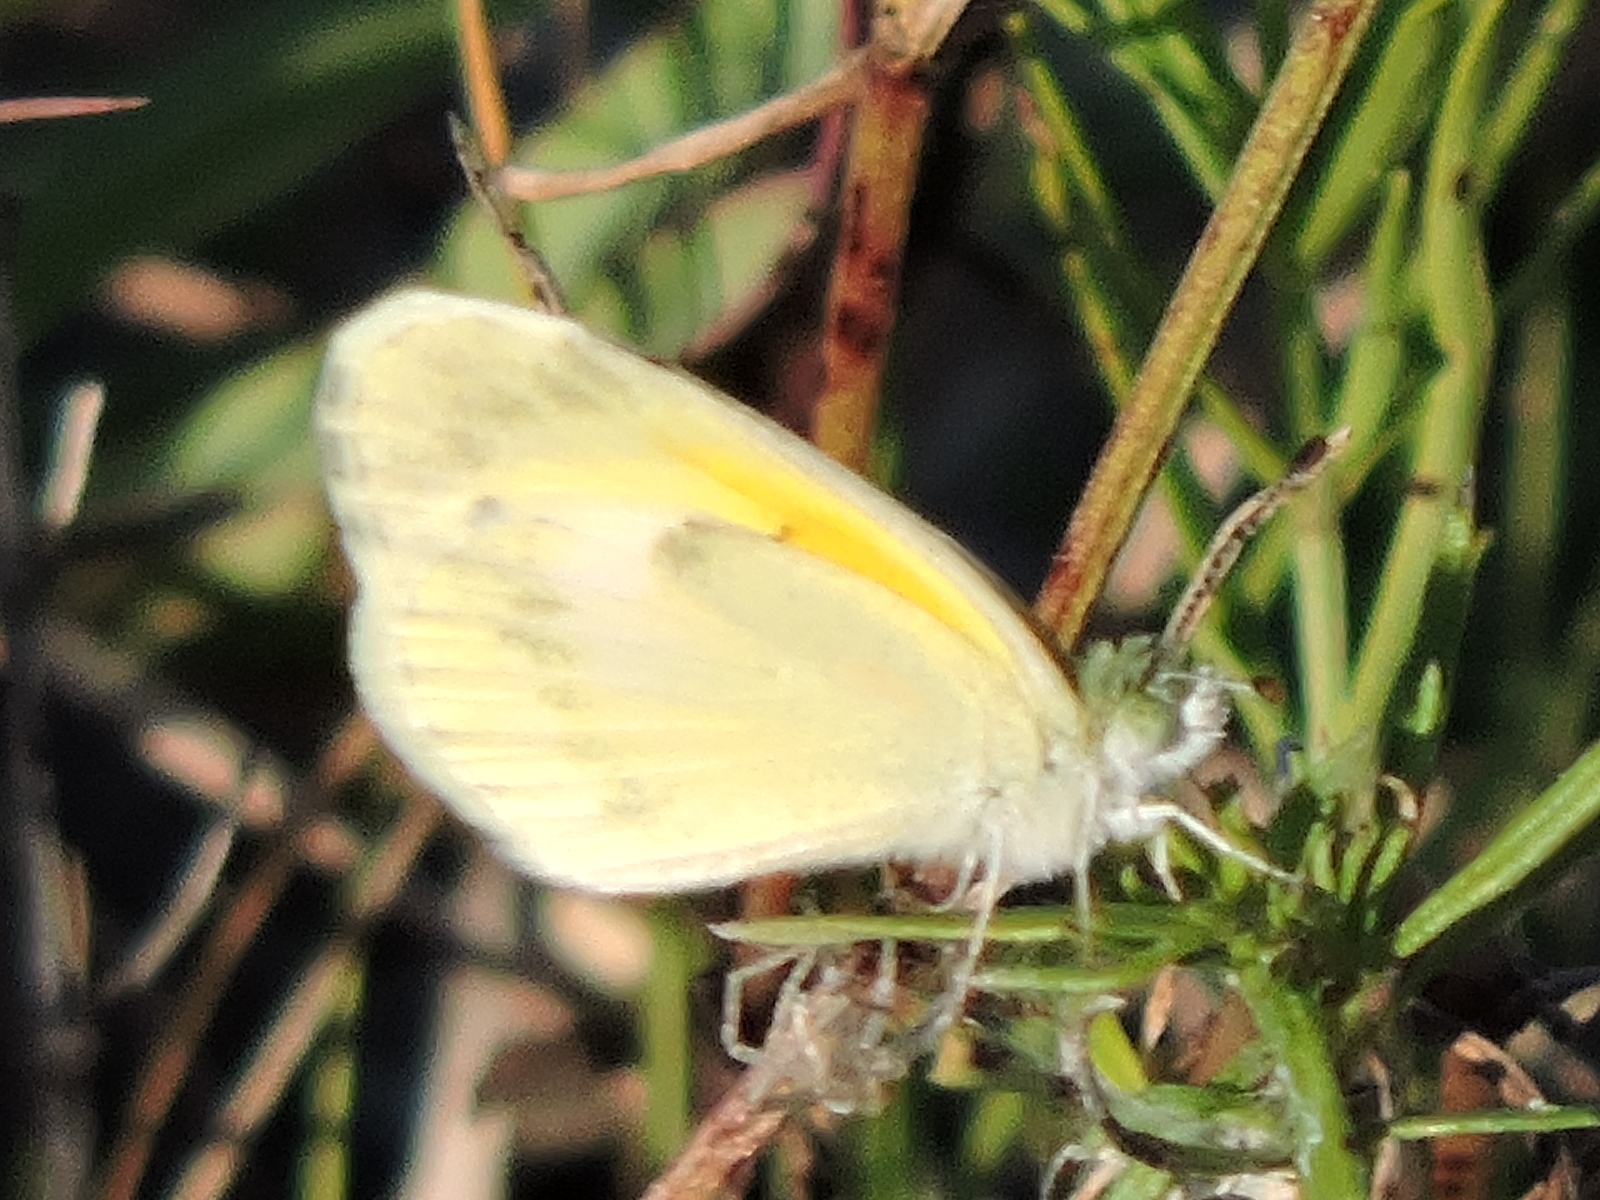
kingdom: Animalia
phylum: Arthropoda
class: Insecta
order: Lepidoptera
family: Pieridae
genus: Nathalis
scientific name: Nathalis iole
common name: Dainty sulphur
